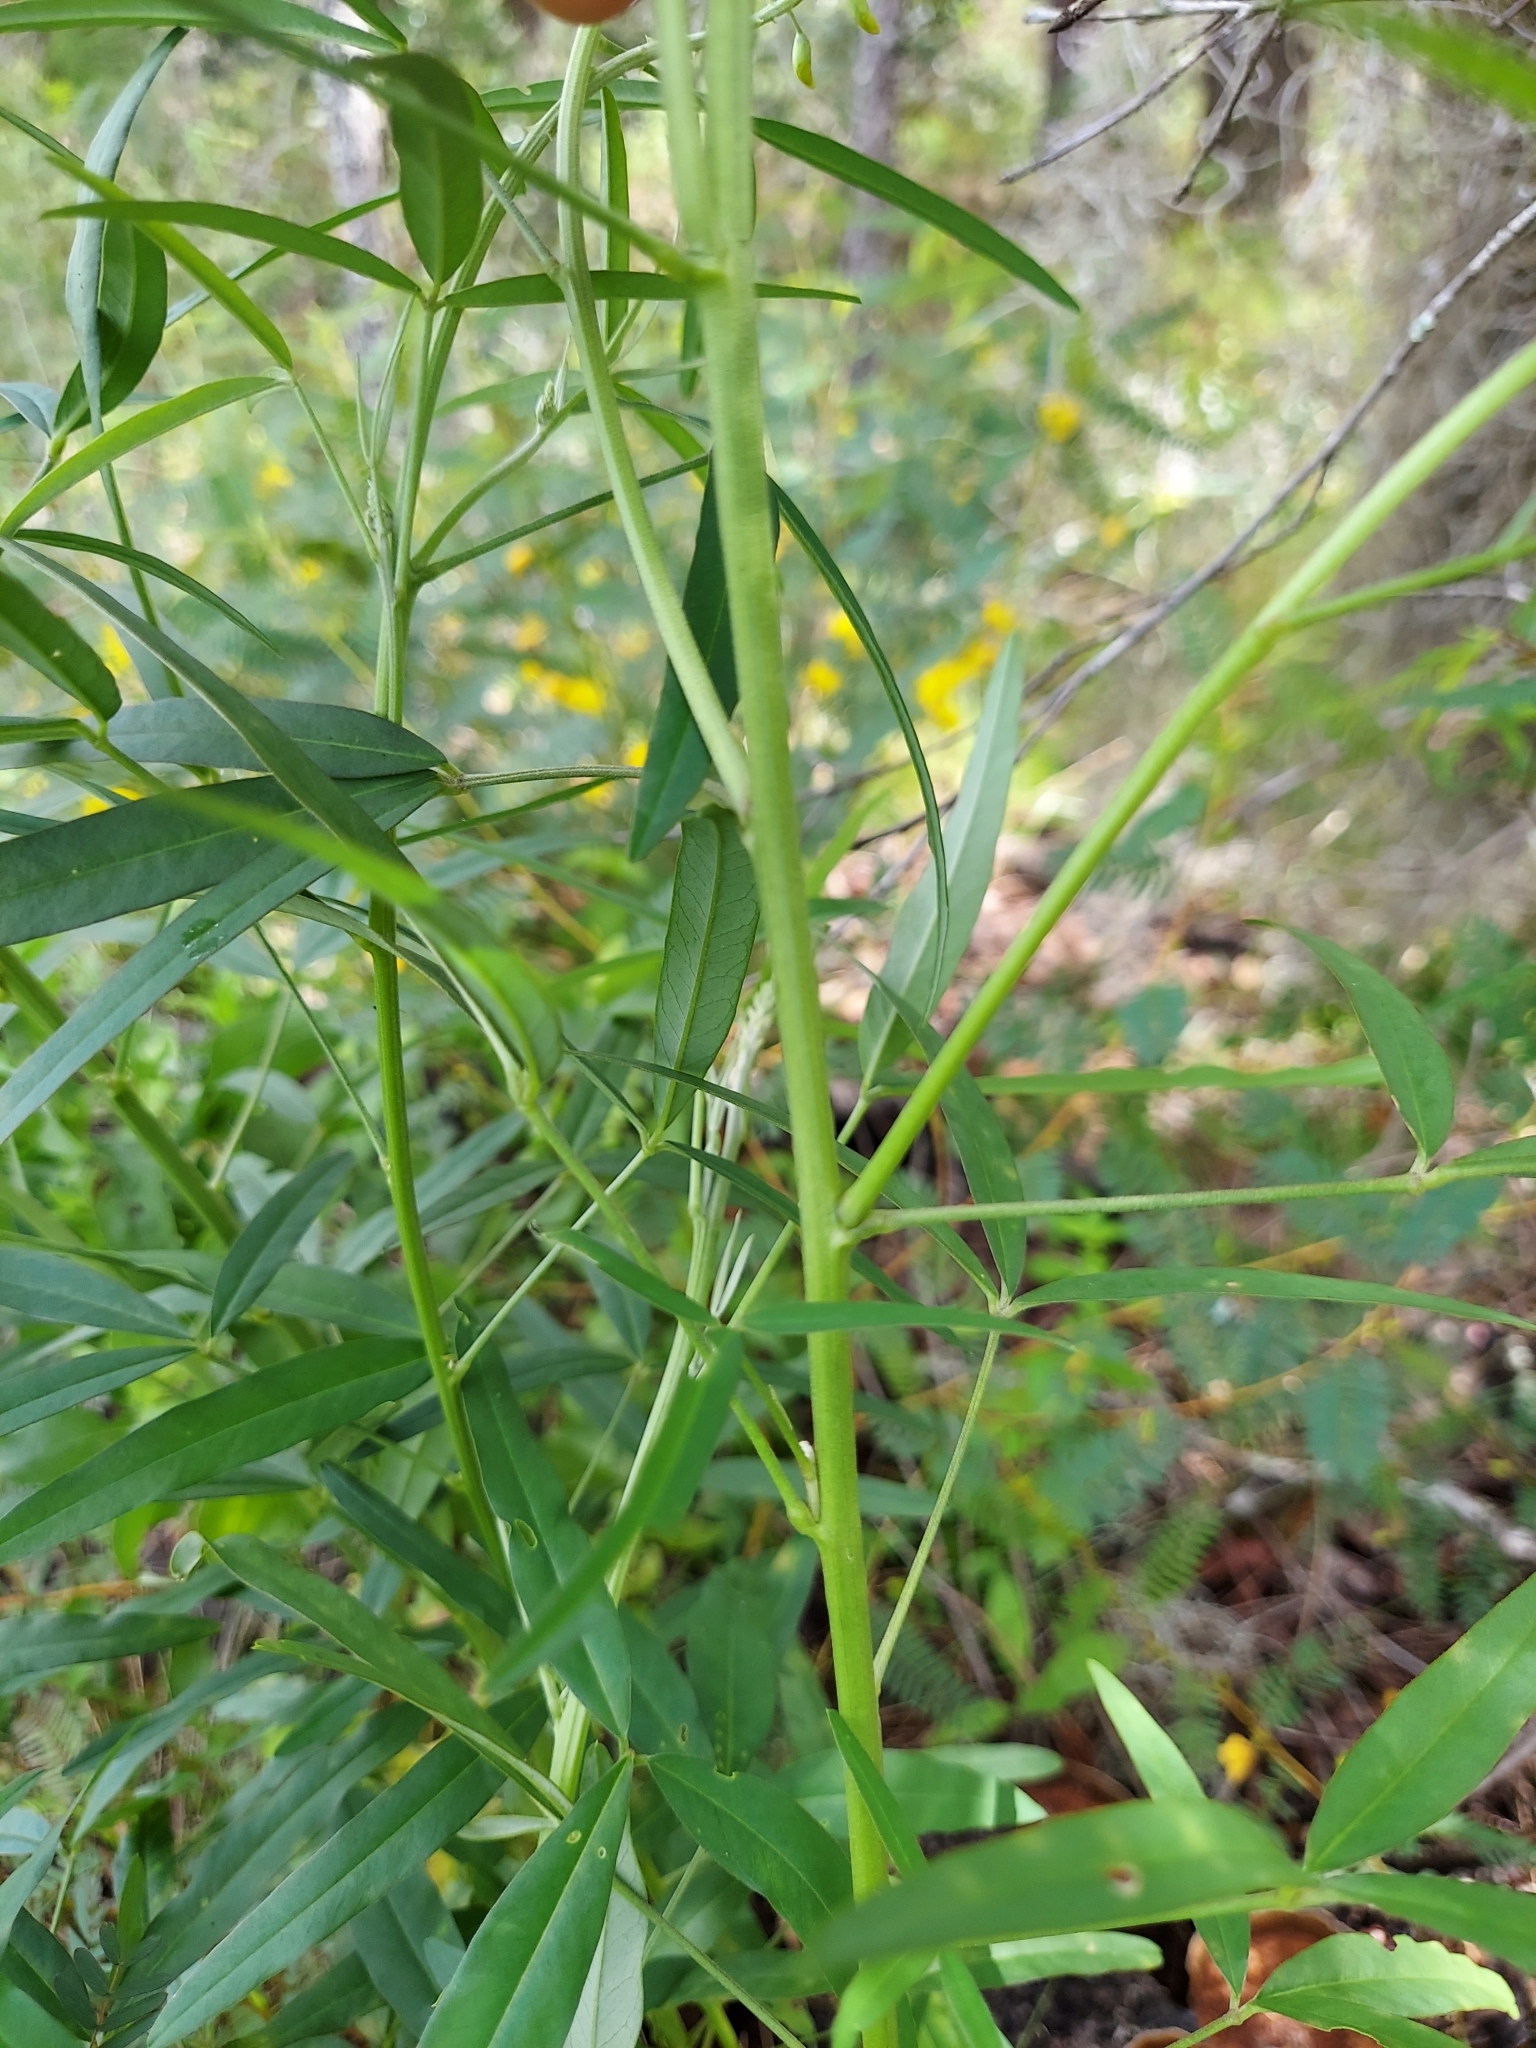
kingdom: Plantae
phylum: Tracheophyta
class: Magnoliopsida
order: Fabales
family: Fabaceae
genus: Crotalaria
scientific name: Crotalaria lanceolata
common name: Lanceleaf rattlebox
